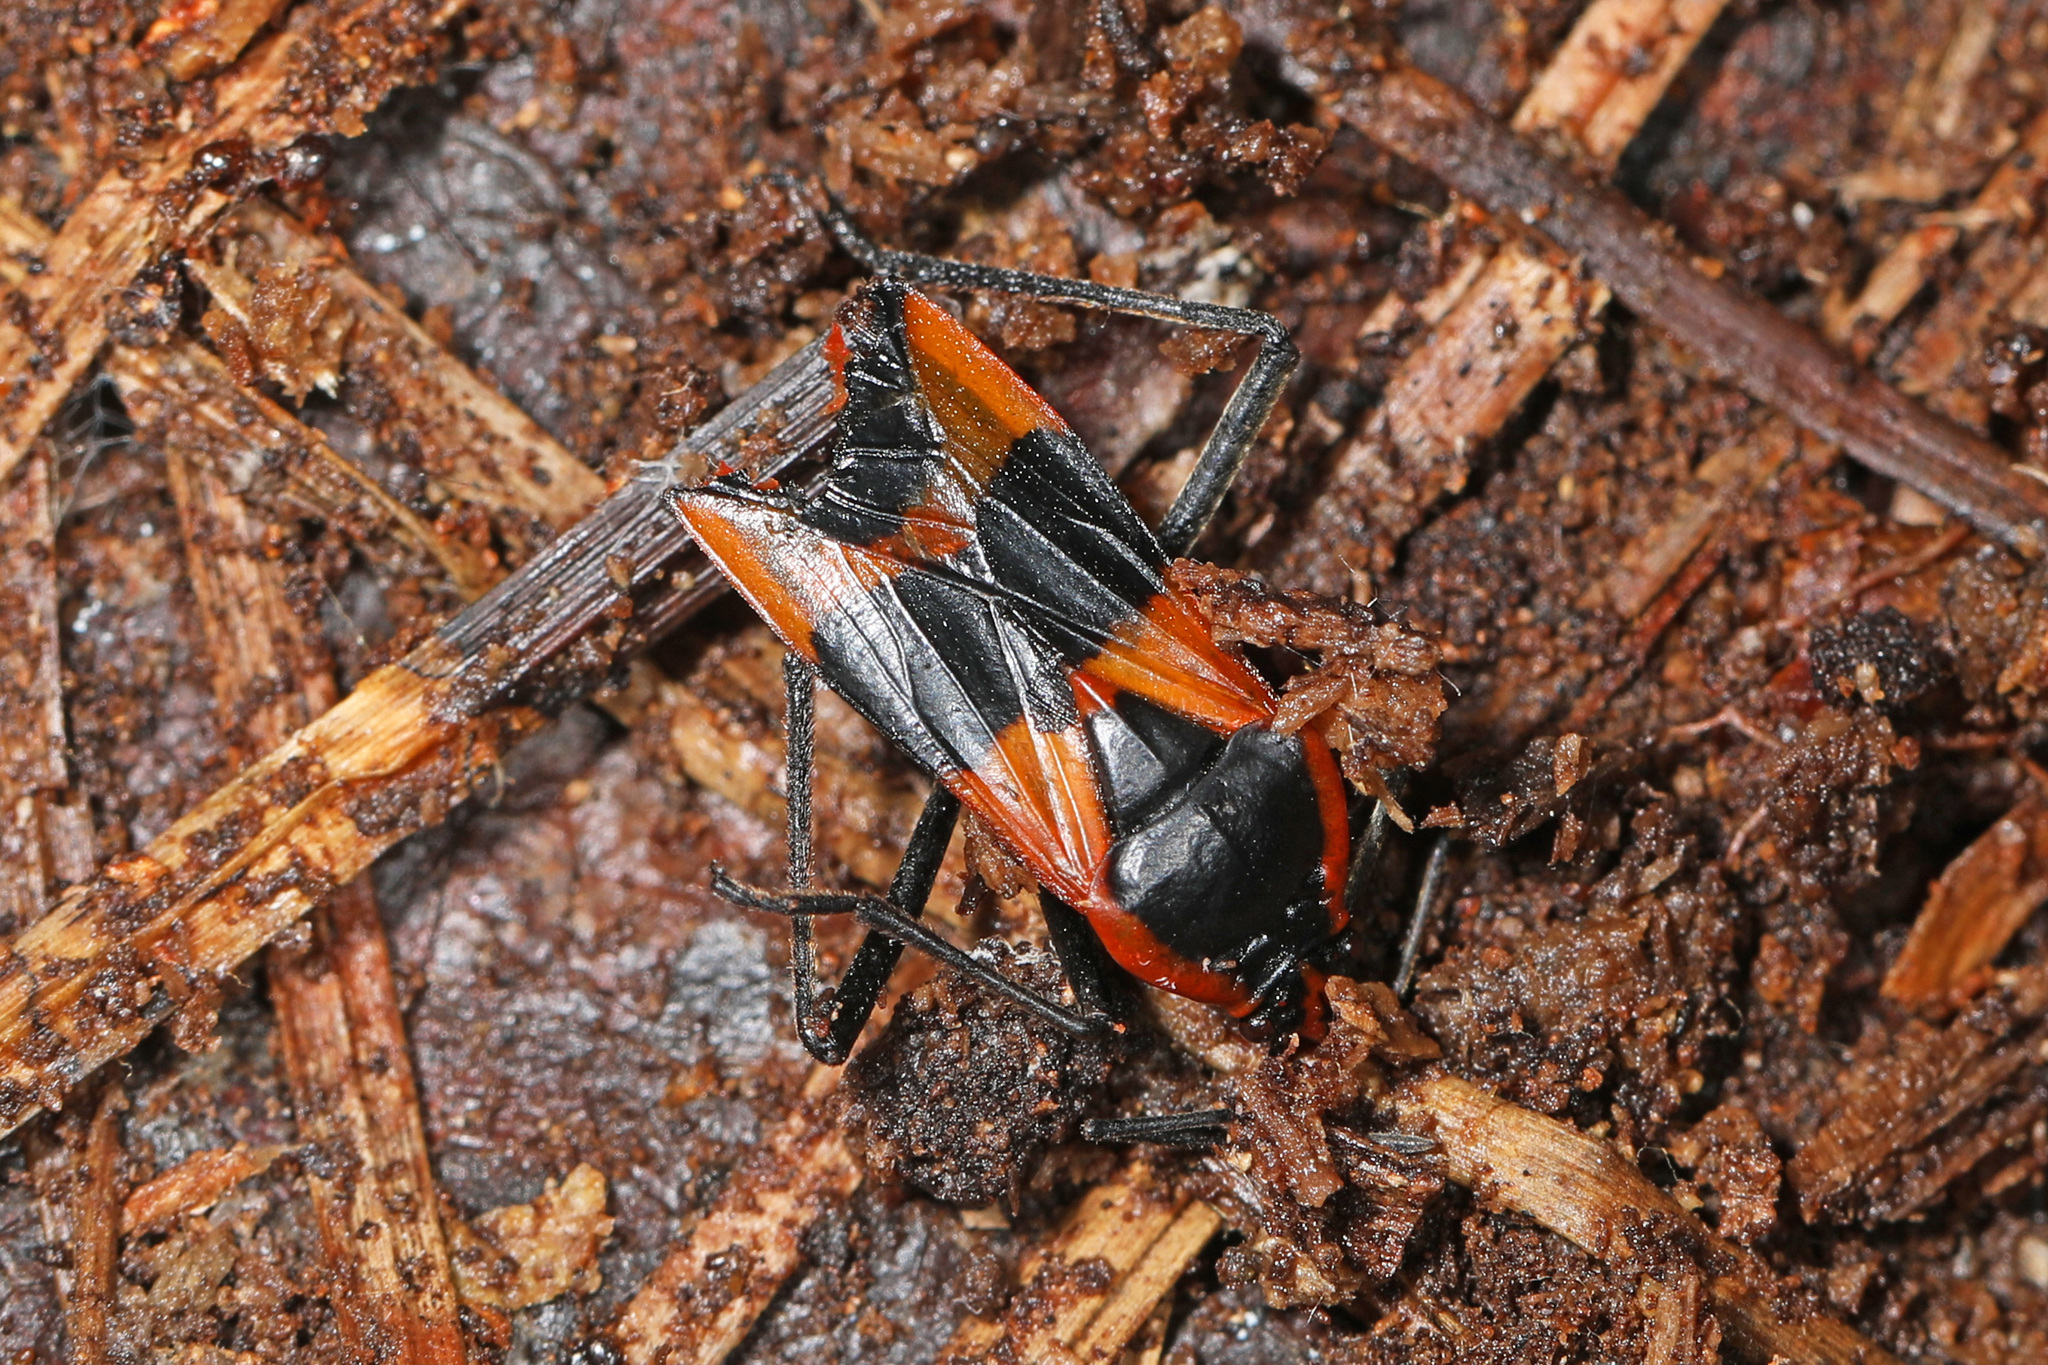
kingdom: Animalia
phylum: Arthropoda
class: Insecta
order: Hemiptera
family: Lygaeidae
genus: Oncopeltus
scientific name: Oncopeltus fasciatus
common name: Large milkweed bug
